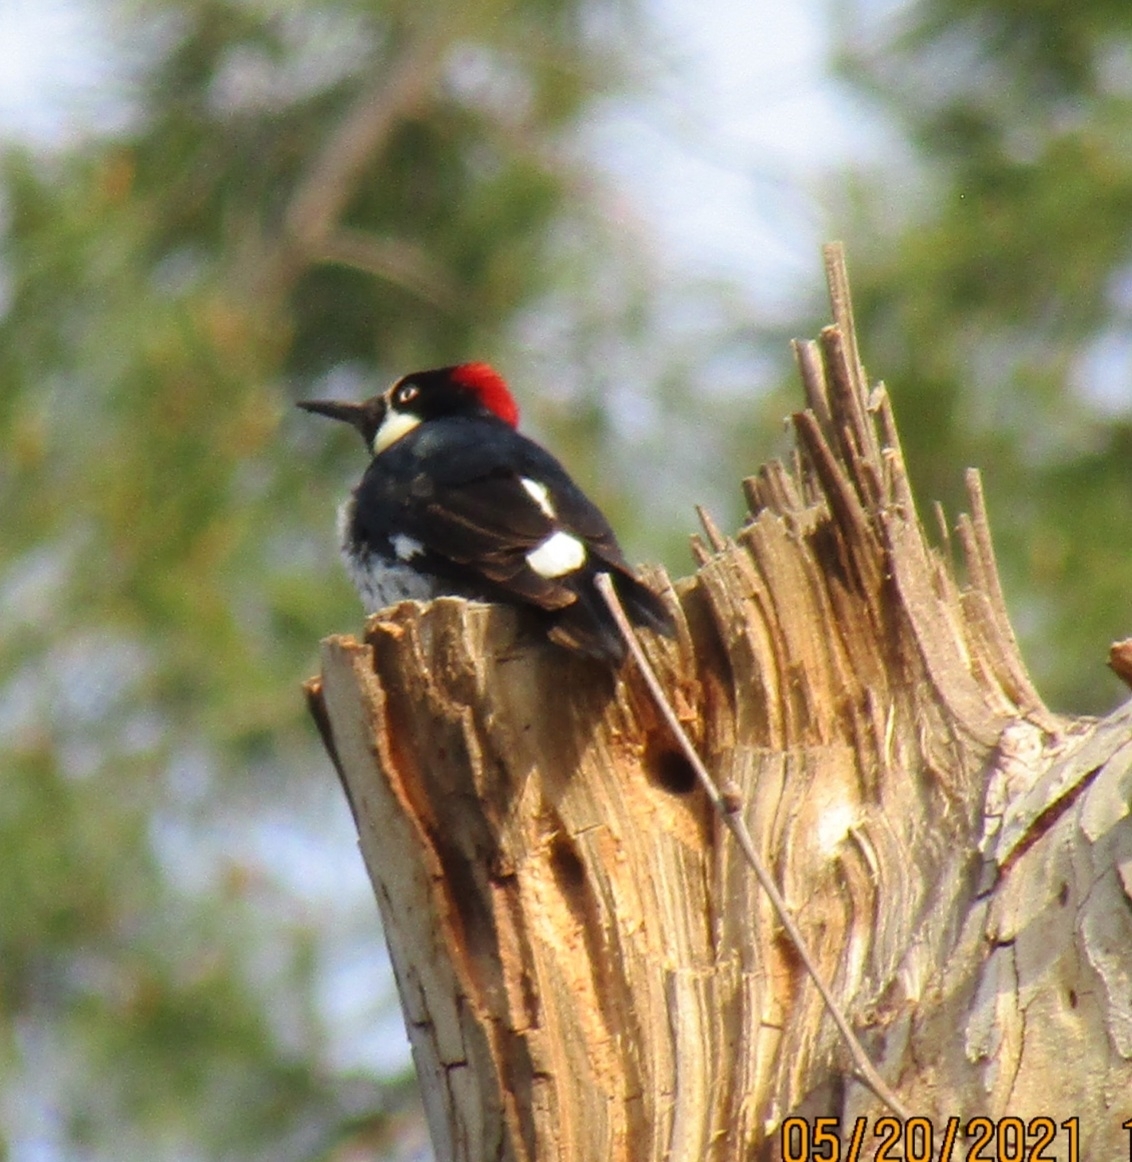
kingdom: Animalia
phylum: Chordata
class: Aves
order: Piciformes
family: Picidae
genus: Melanerpes
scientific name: Melanerpes formicivorus
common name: Acorn woodpecker
